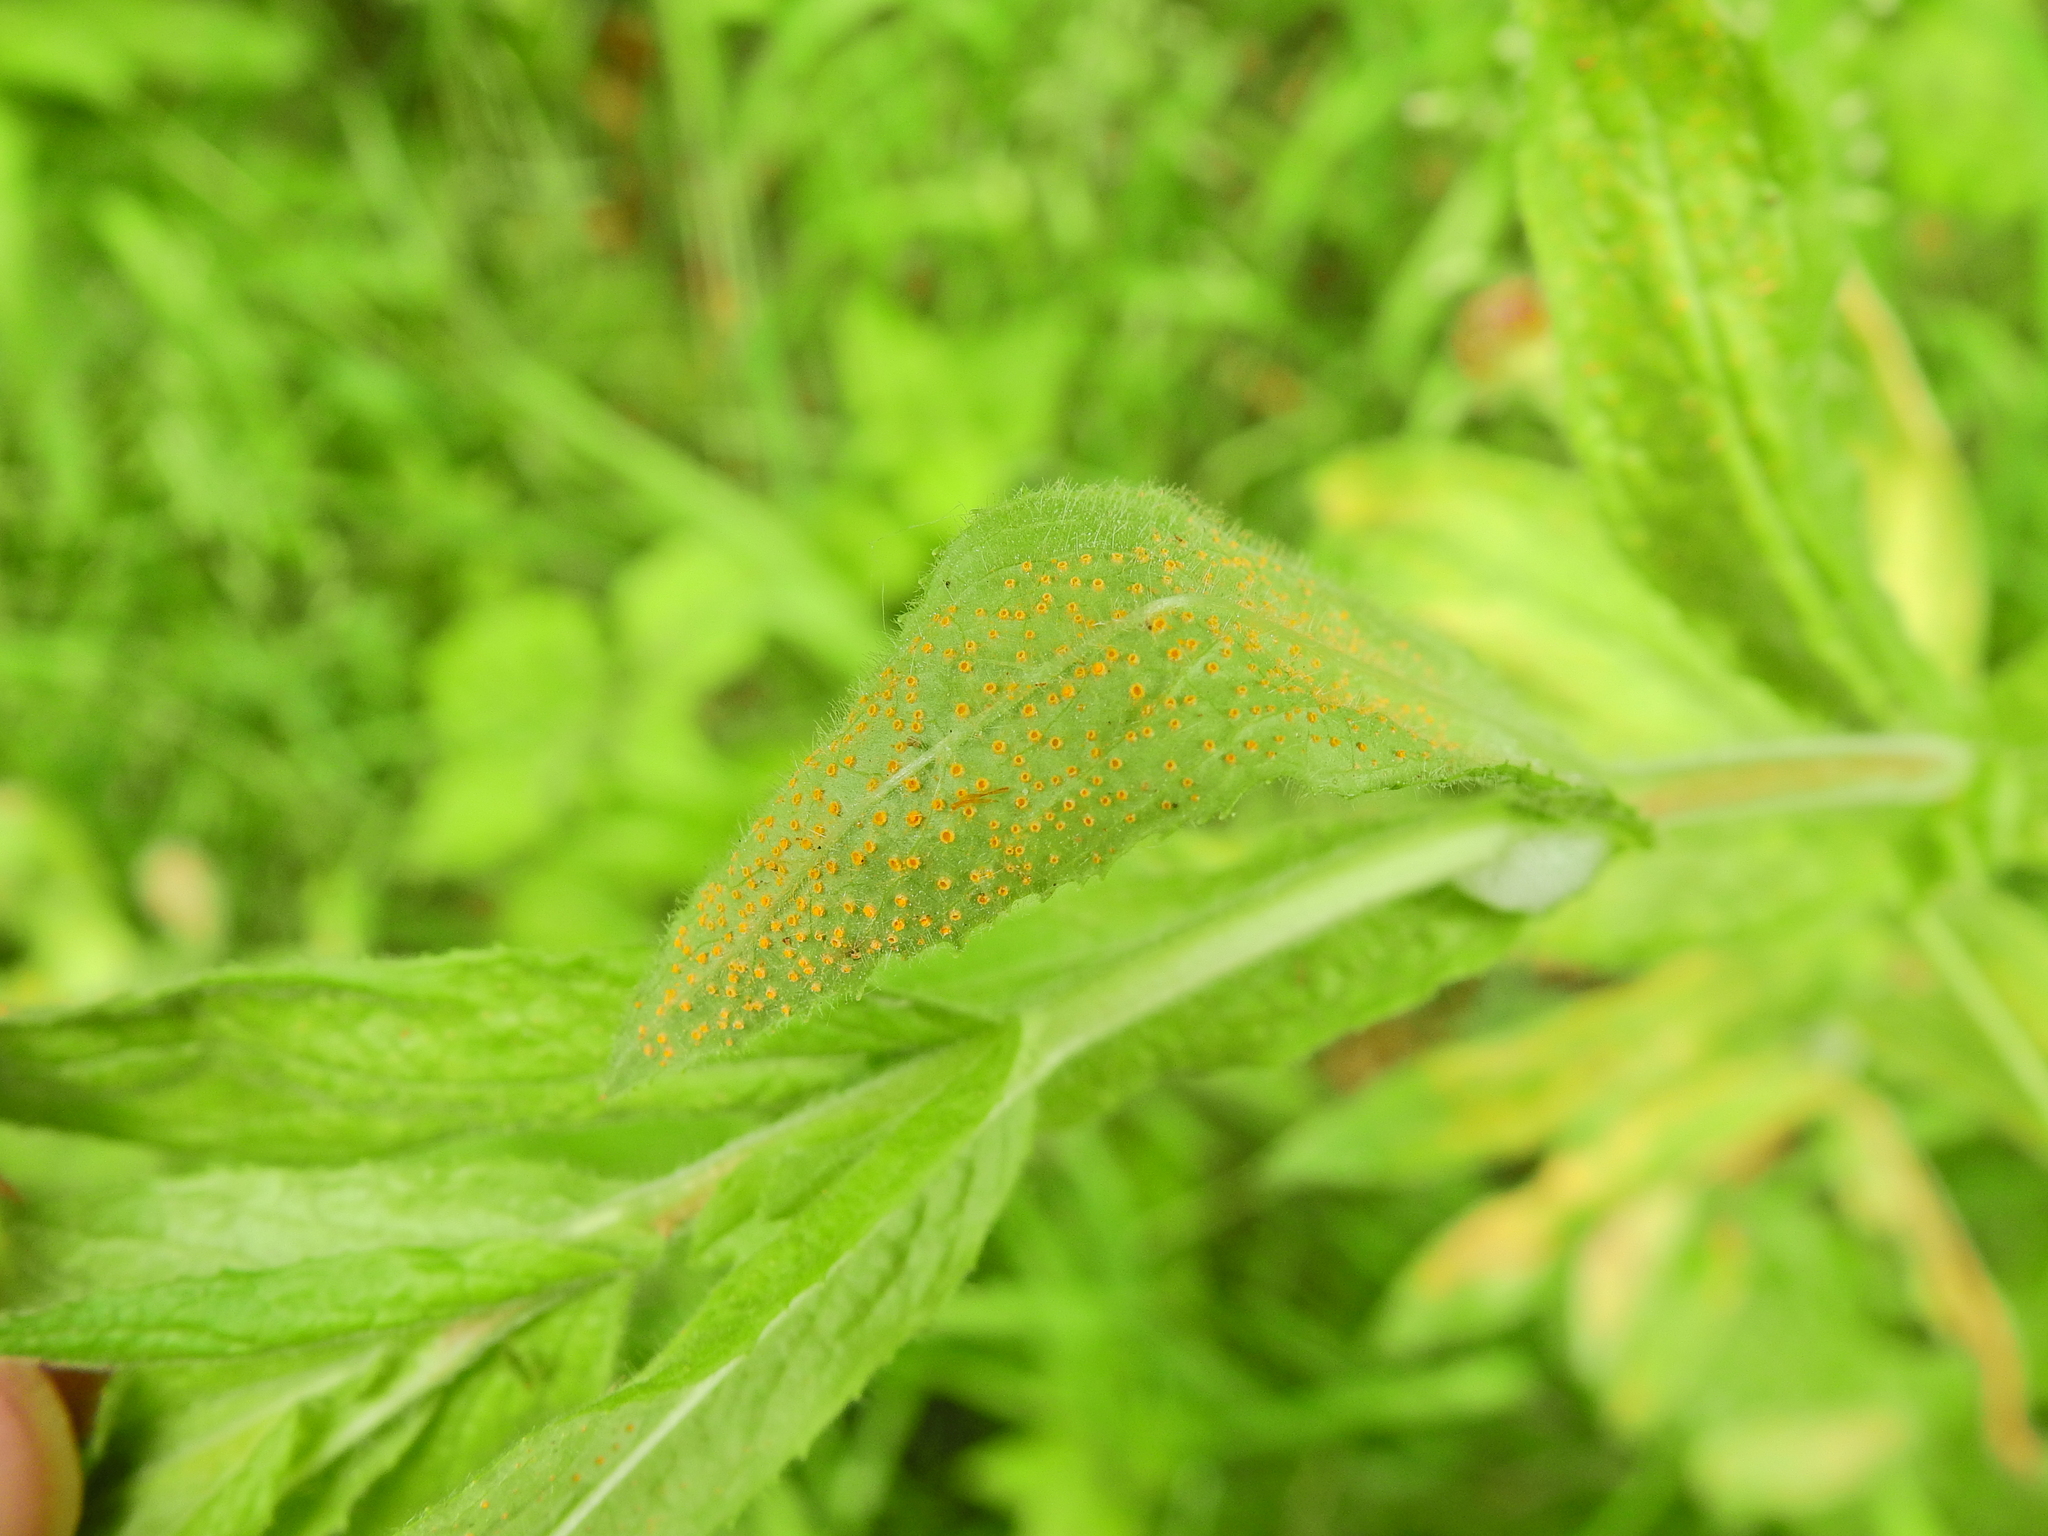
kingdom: Fungi
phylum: Basidiomycota
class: Pucciniomycetes
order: Pucciniales
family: Pucciniaceae
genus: Puccinia
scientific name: Puccinia pulverulenta
